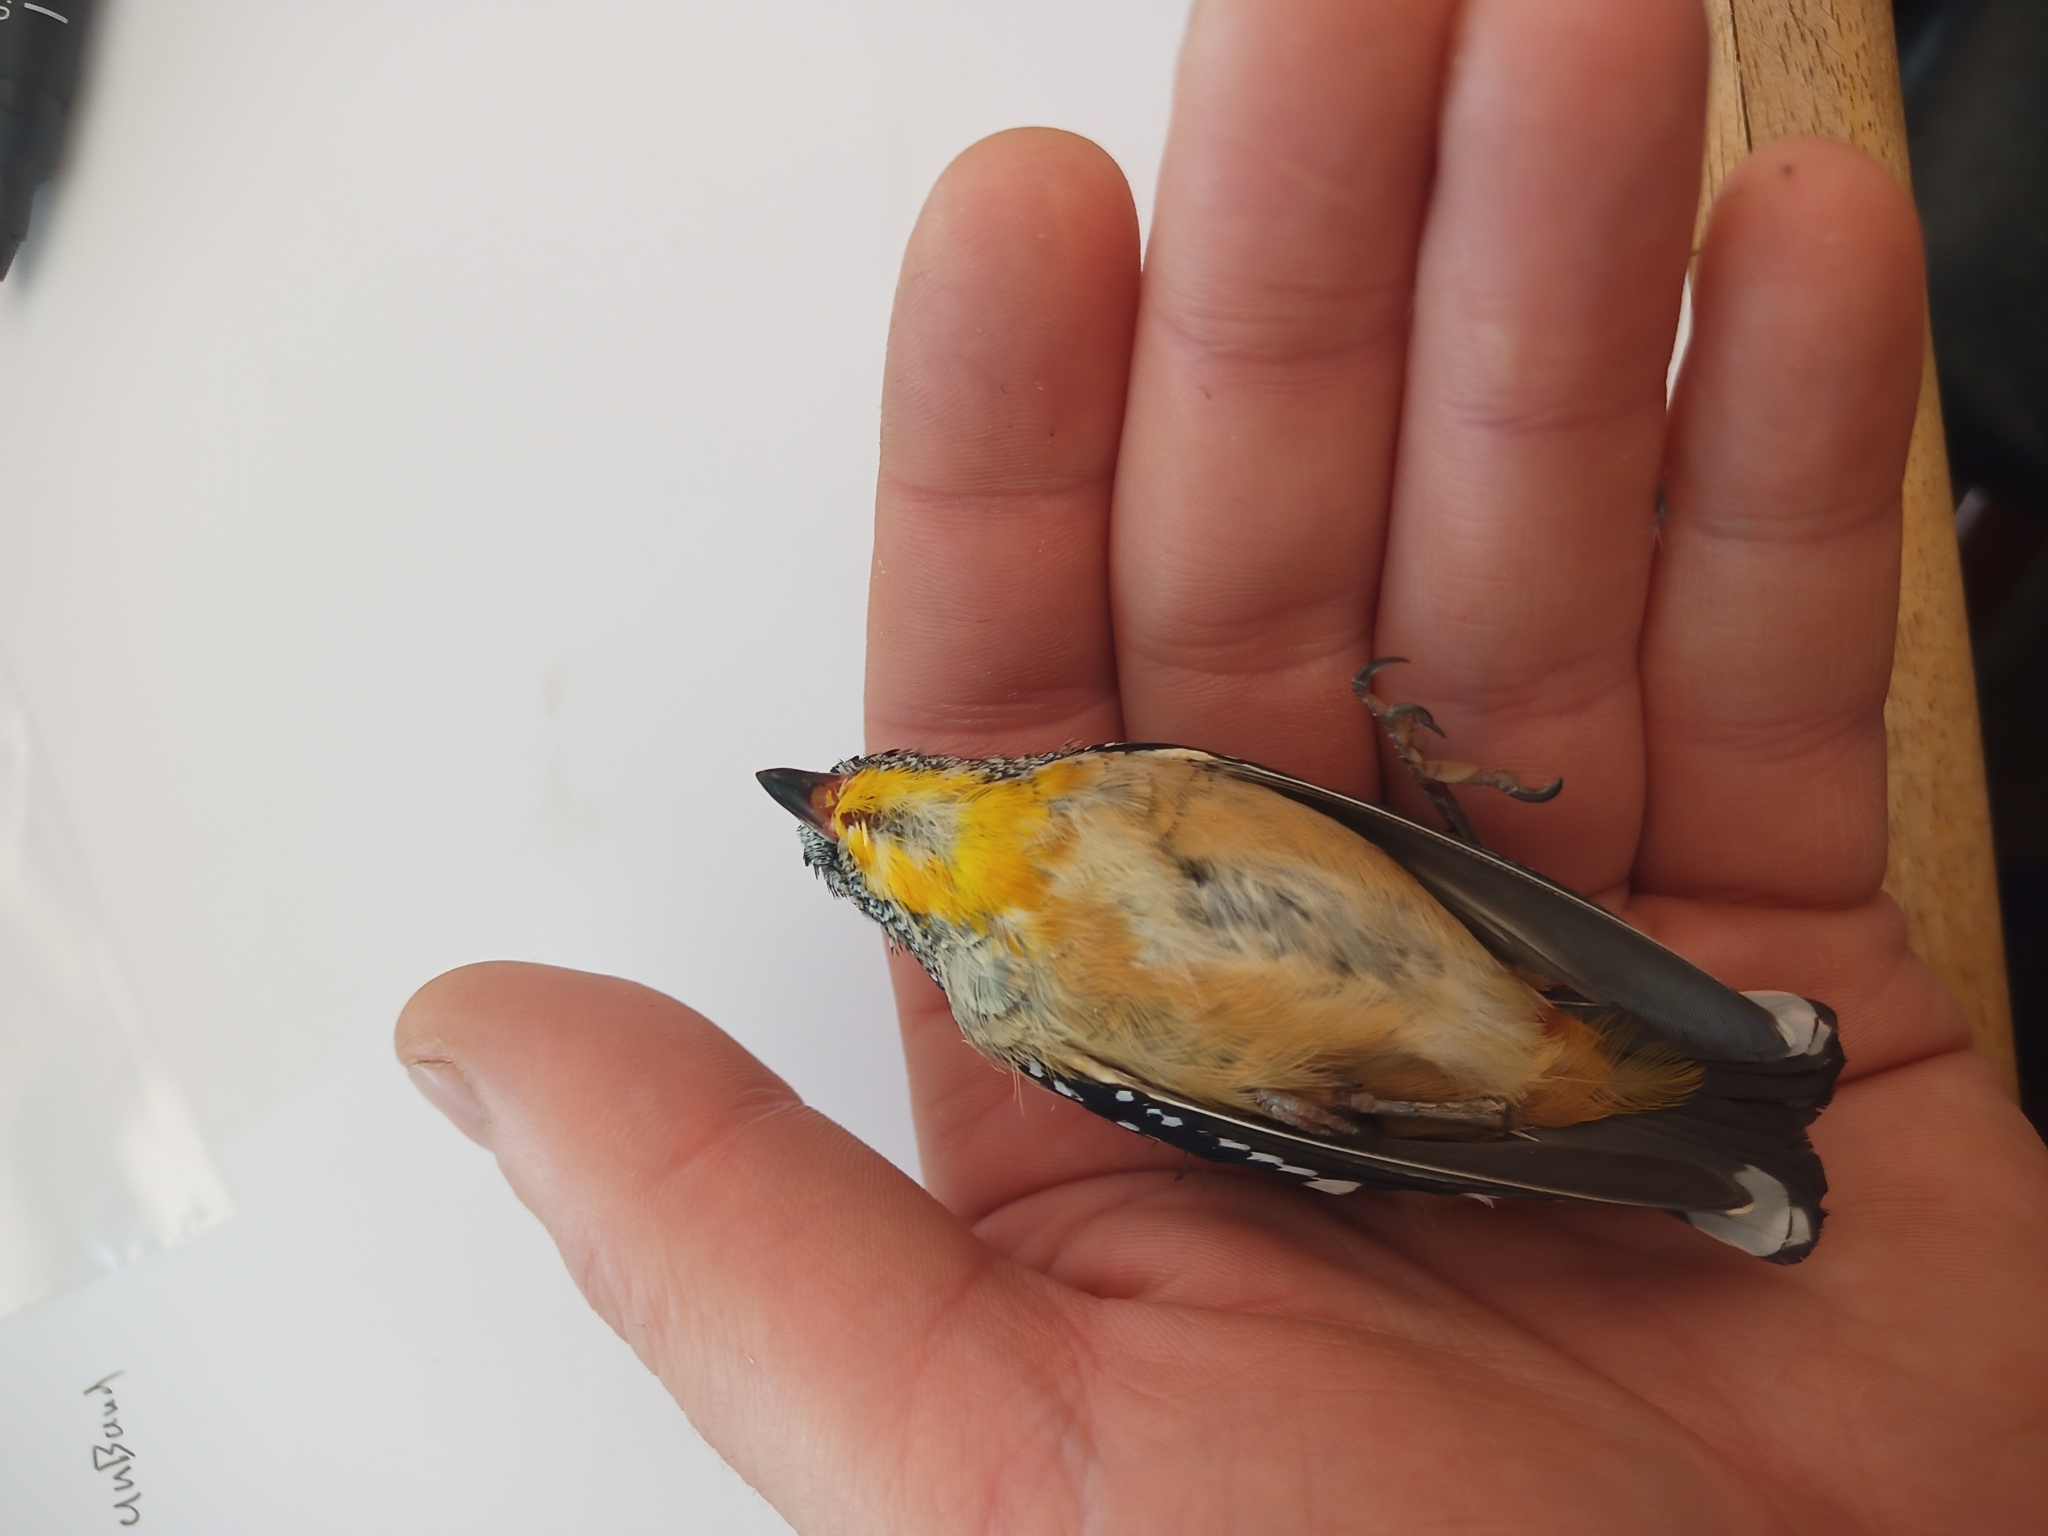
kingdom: Animalia
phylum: Chordata
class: Aves
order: Passeriformes
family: Pardalotidae
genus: Pardalotus
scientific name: Pardalotus punctatus
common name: Spotted pardalote
